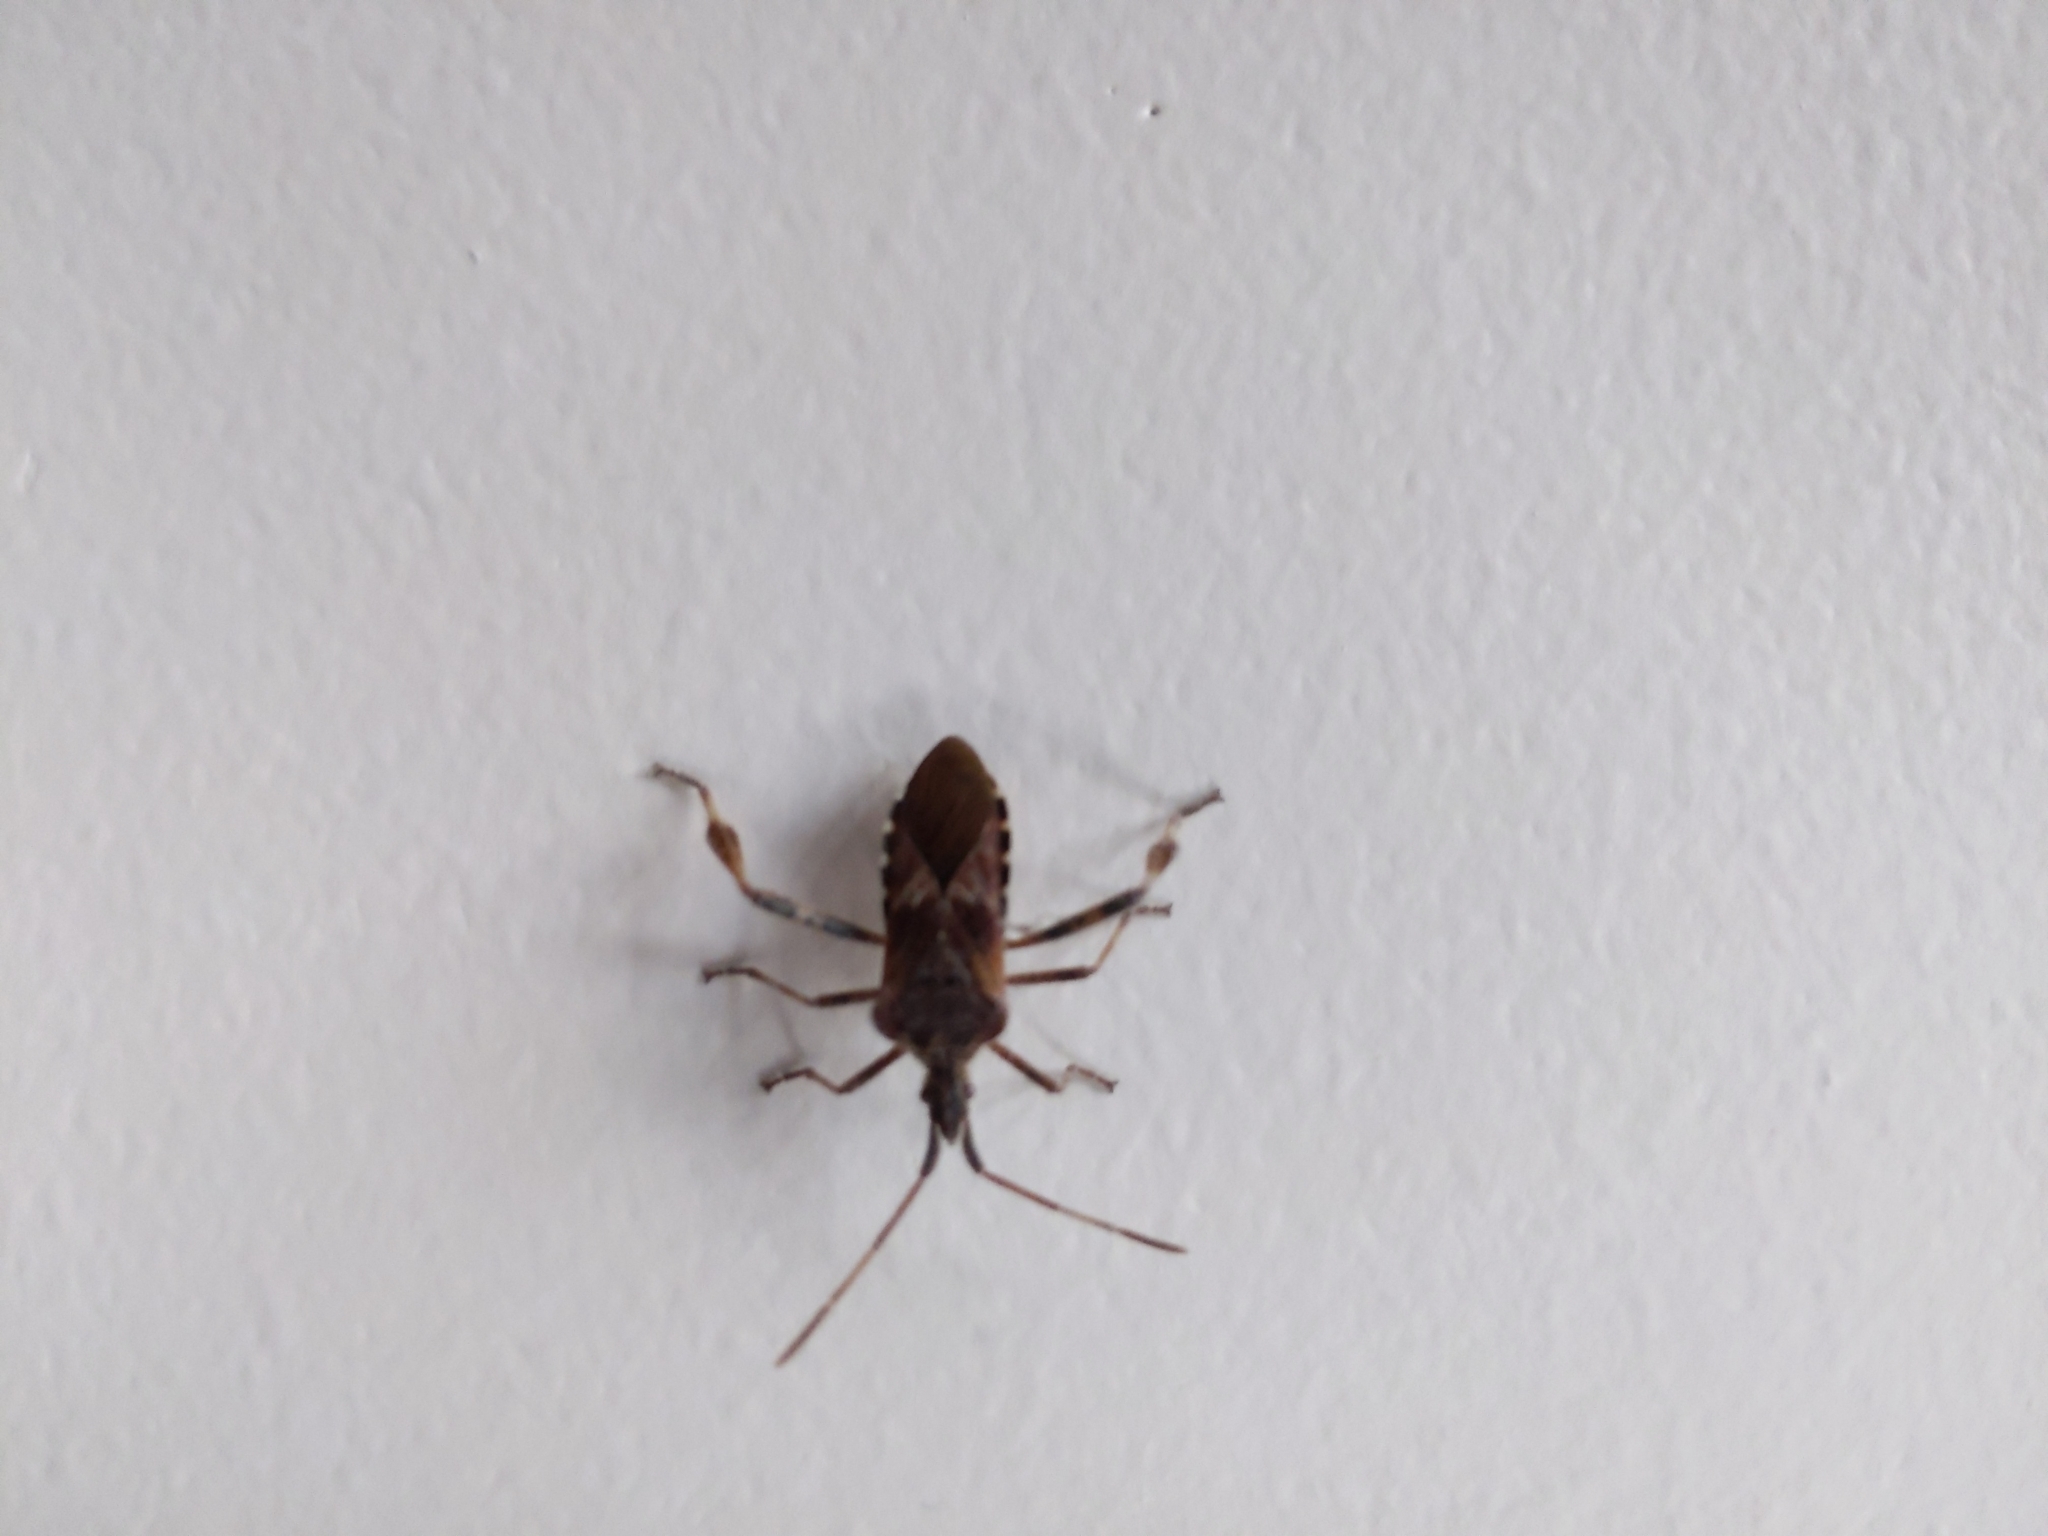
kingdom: Animalia
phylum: Arthropoda
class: Insecta
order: Hemiptera
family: Coreidae
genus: Leptoglossus
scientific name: Leptoglossus occidentalis
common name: Western conifer-seed bug
